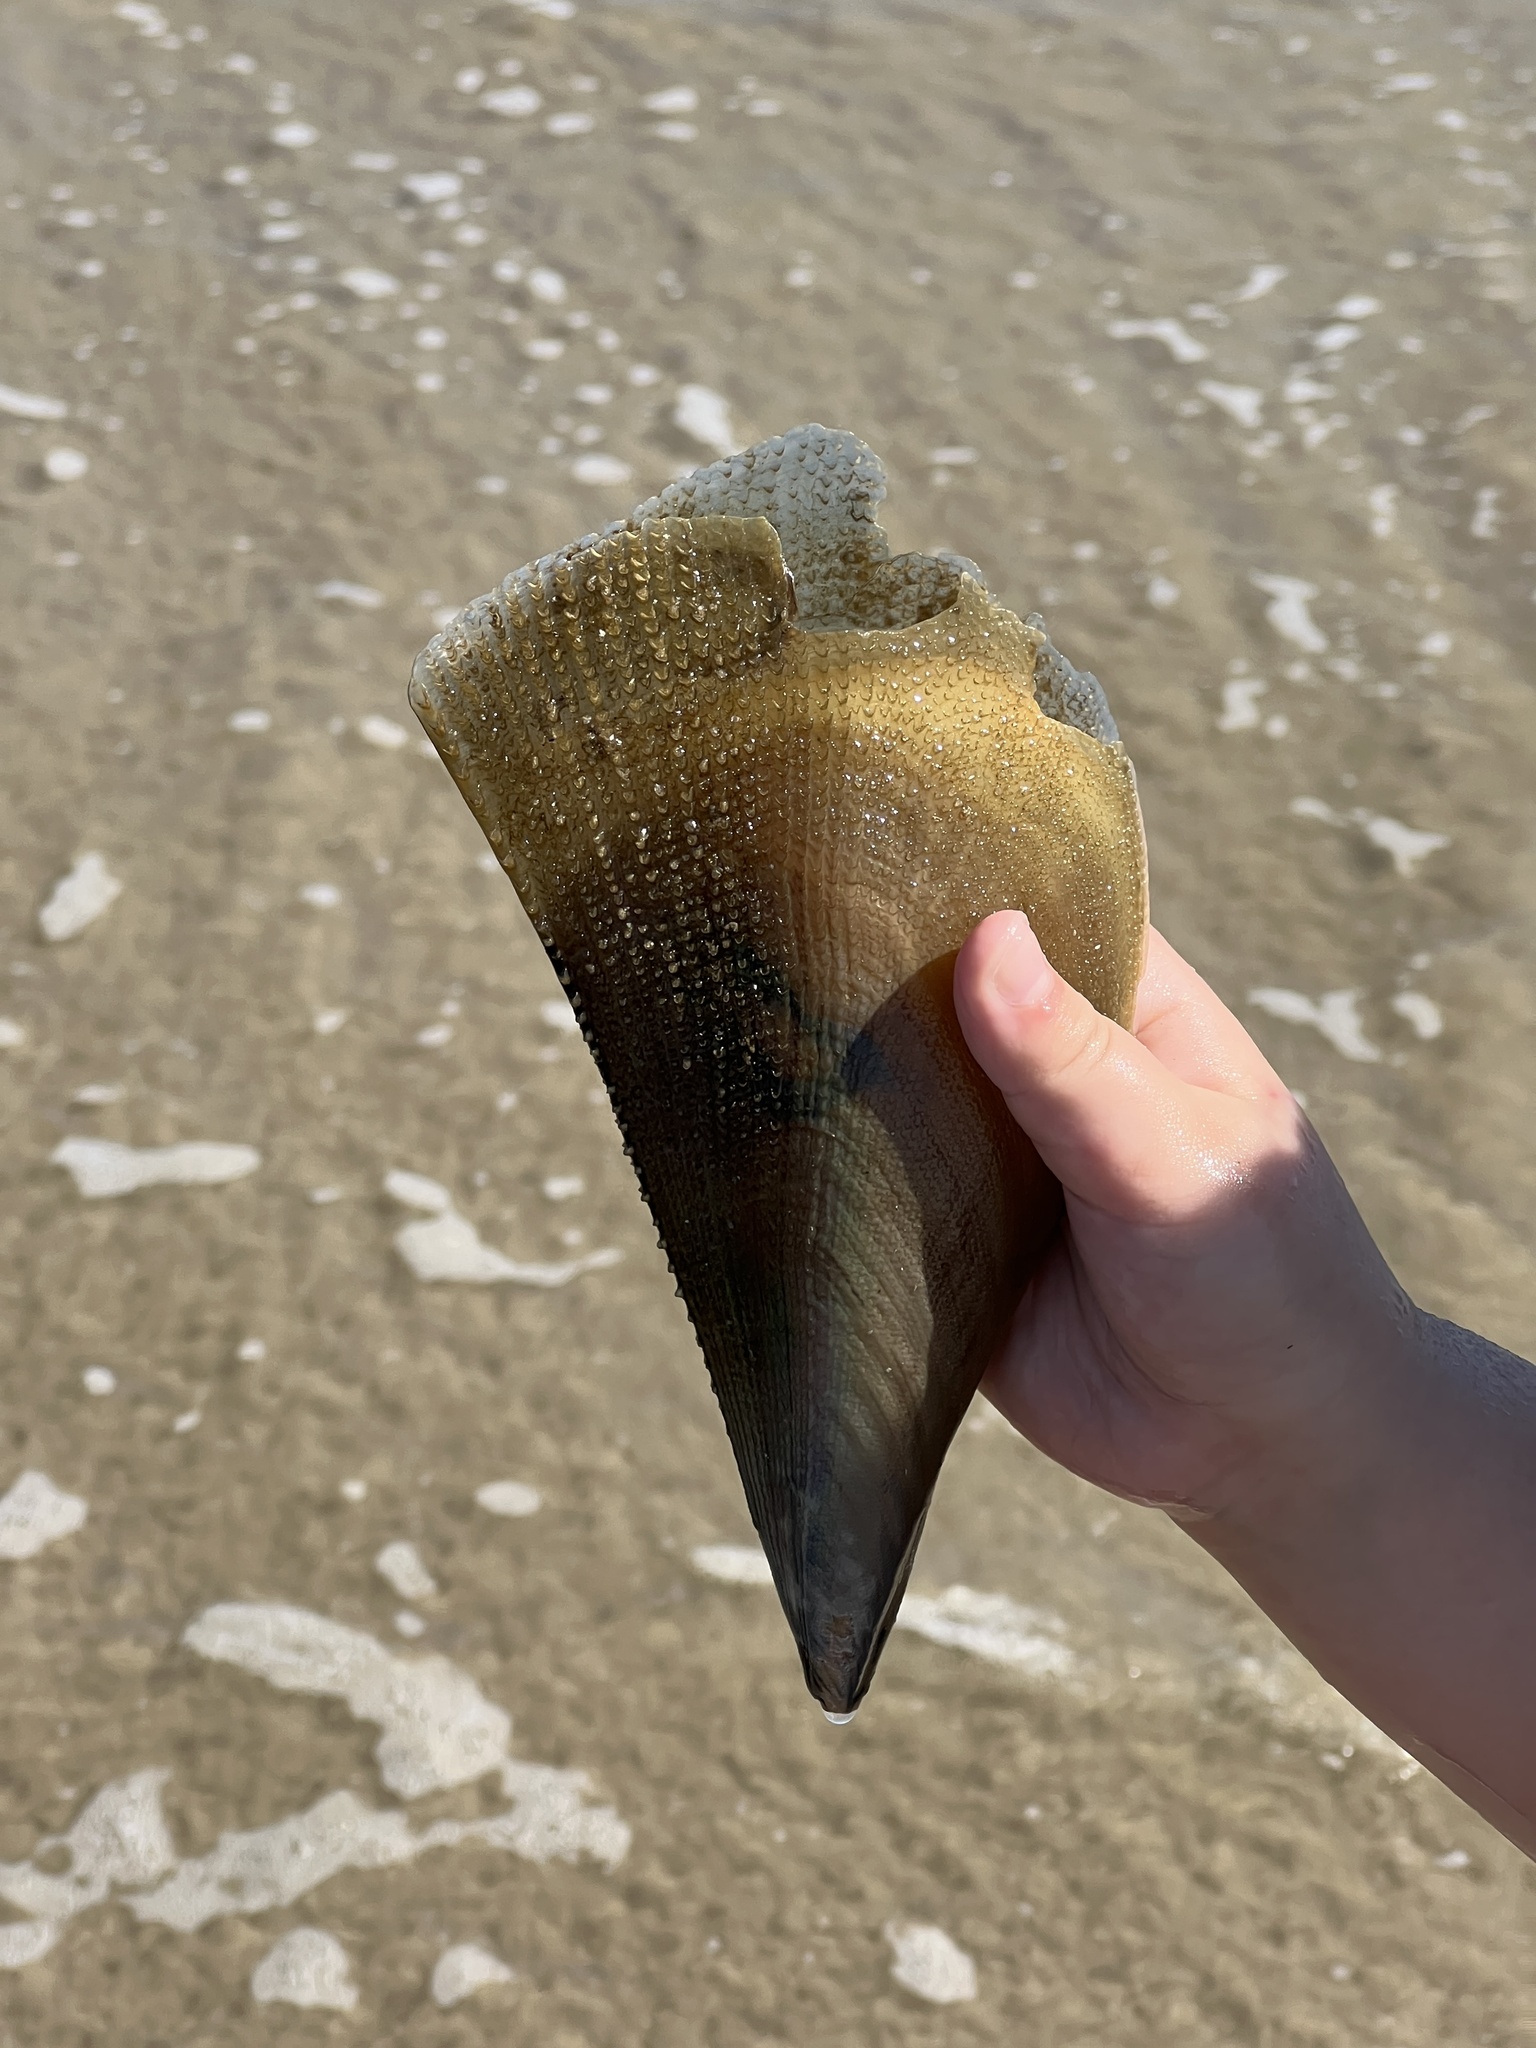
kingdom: Animalia
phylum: Mollusca
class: Bivalvia
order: Ostreida
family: Pinnidae
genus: Atrina
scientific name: Atrina serrata
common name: Saw-toothed penshell
